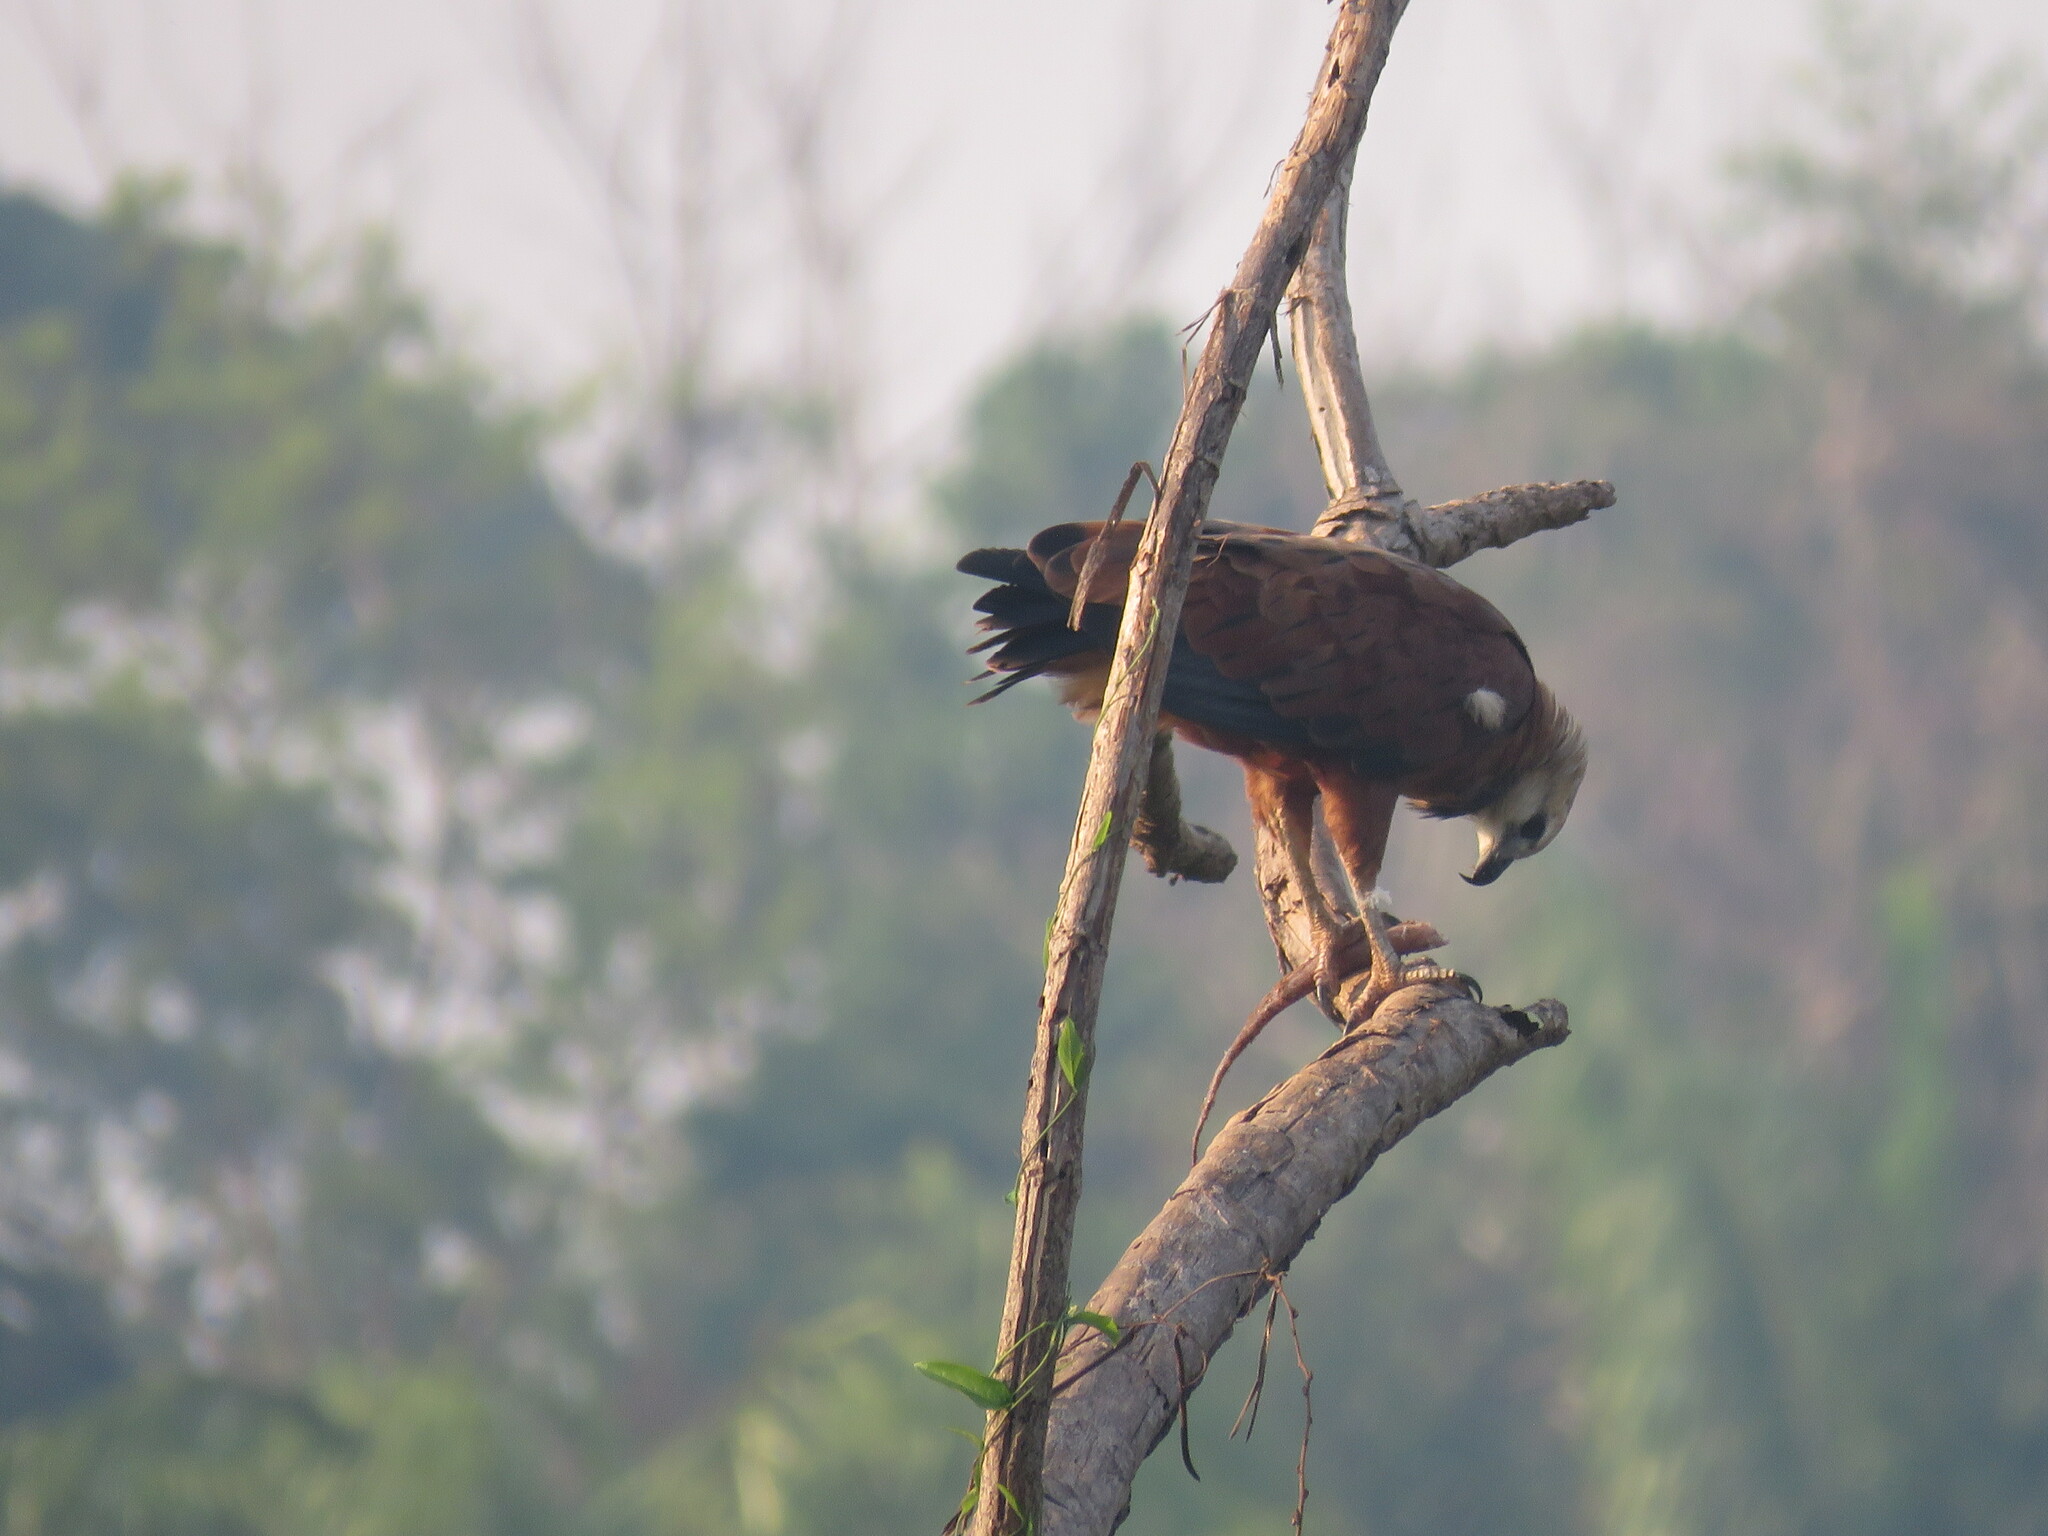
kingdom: Animalia
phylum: Chordata
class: Aves
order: Accipitriformes
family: Accipitridae
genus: Busarellus
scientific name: Busarellus nigricollis
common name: Black-collared hawk
